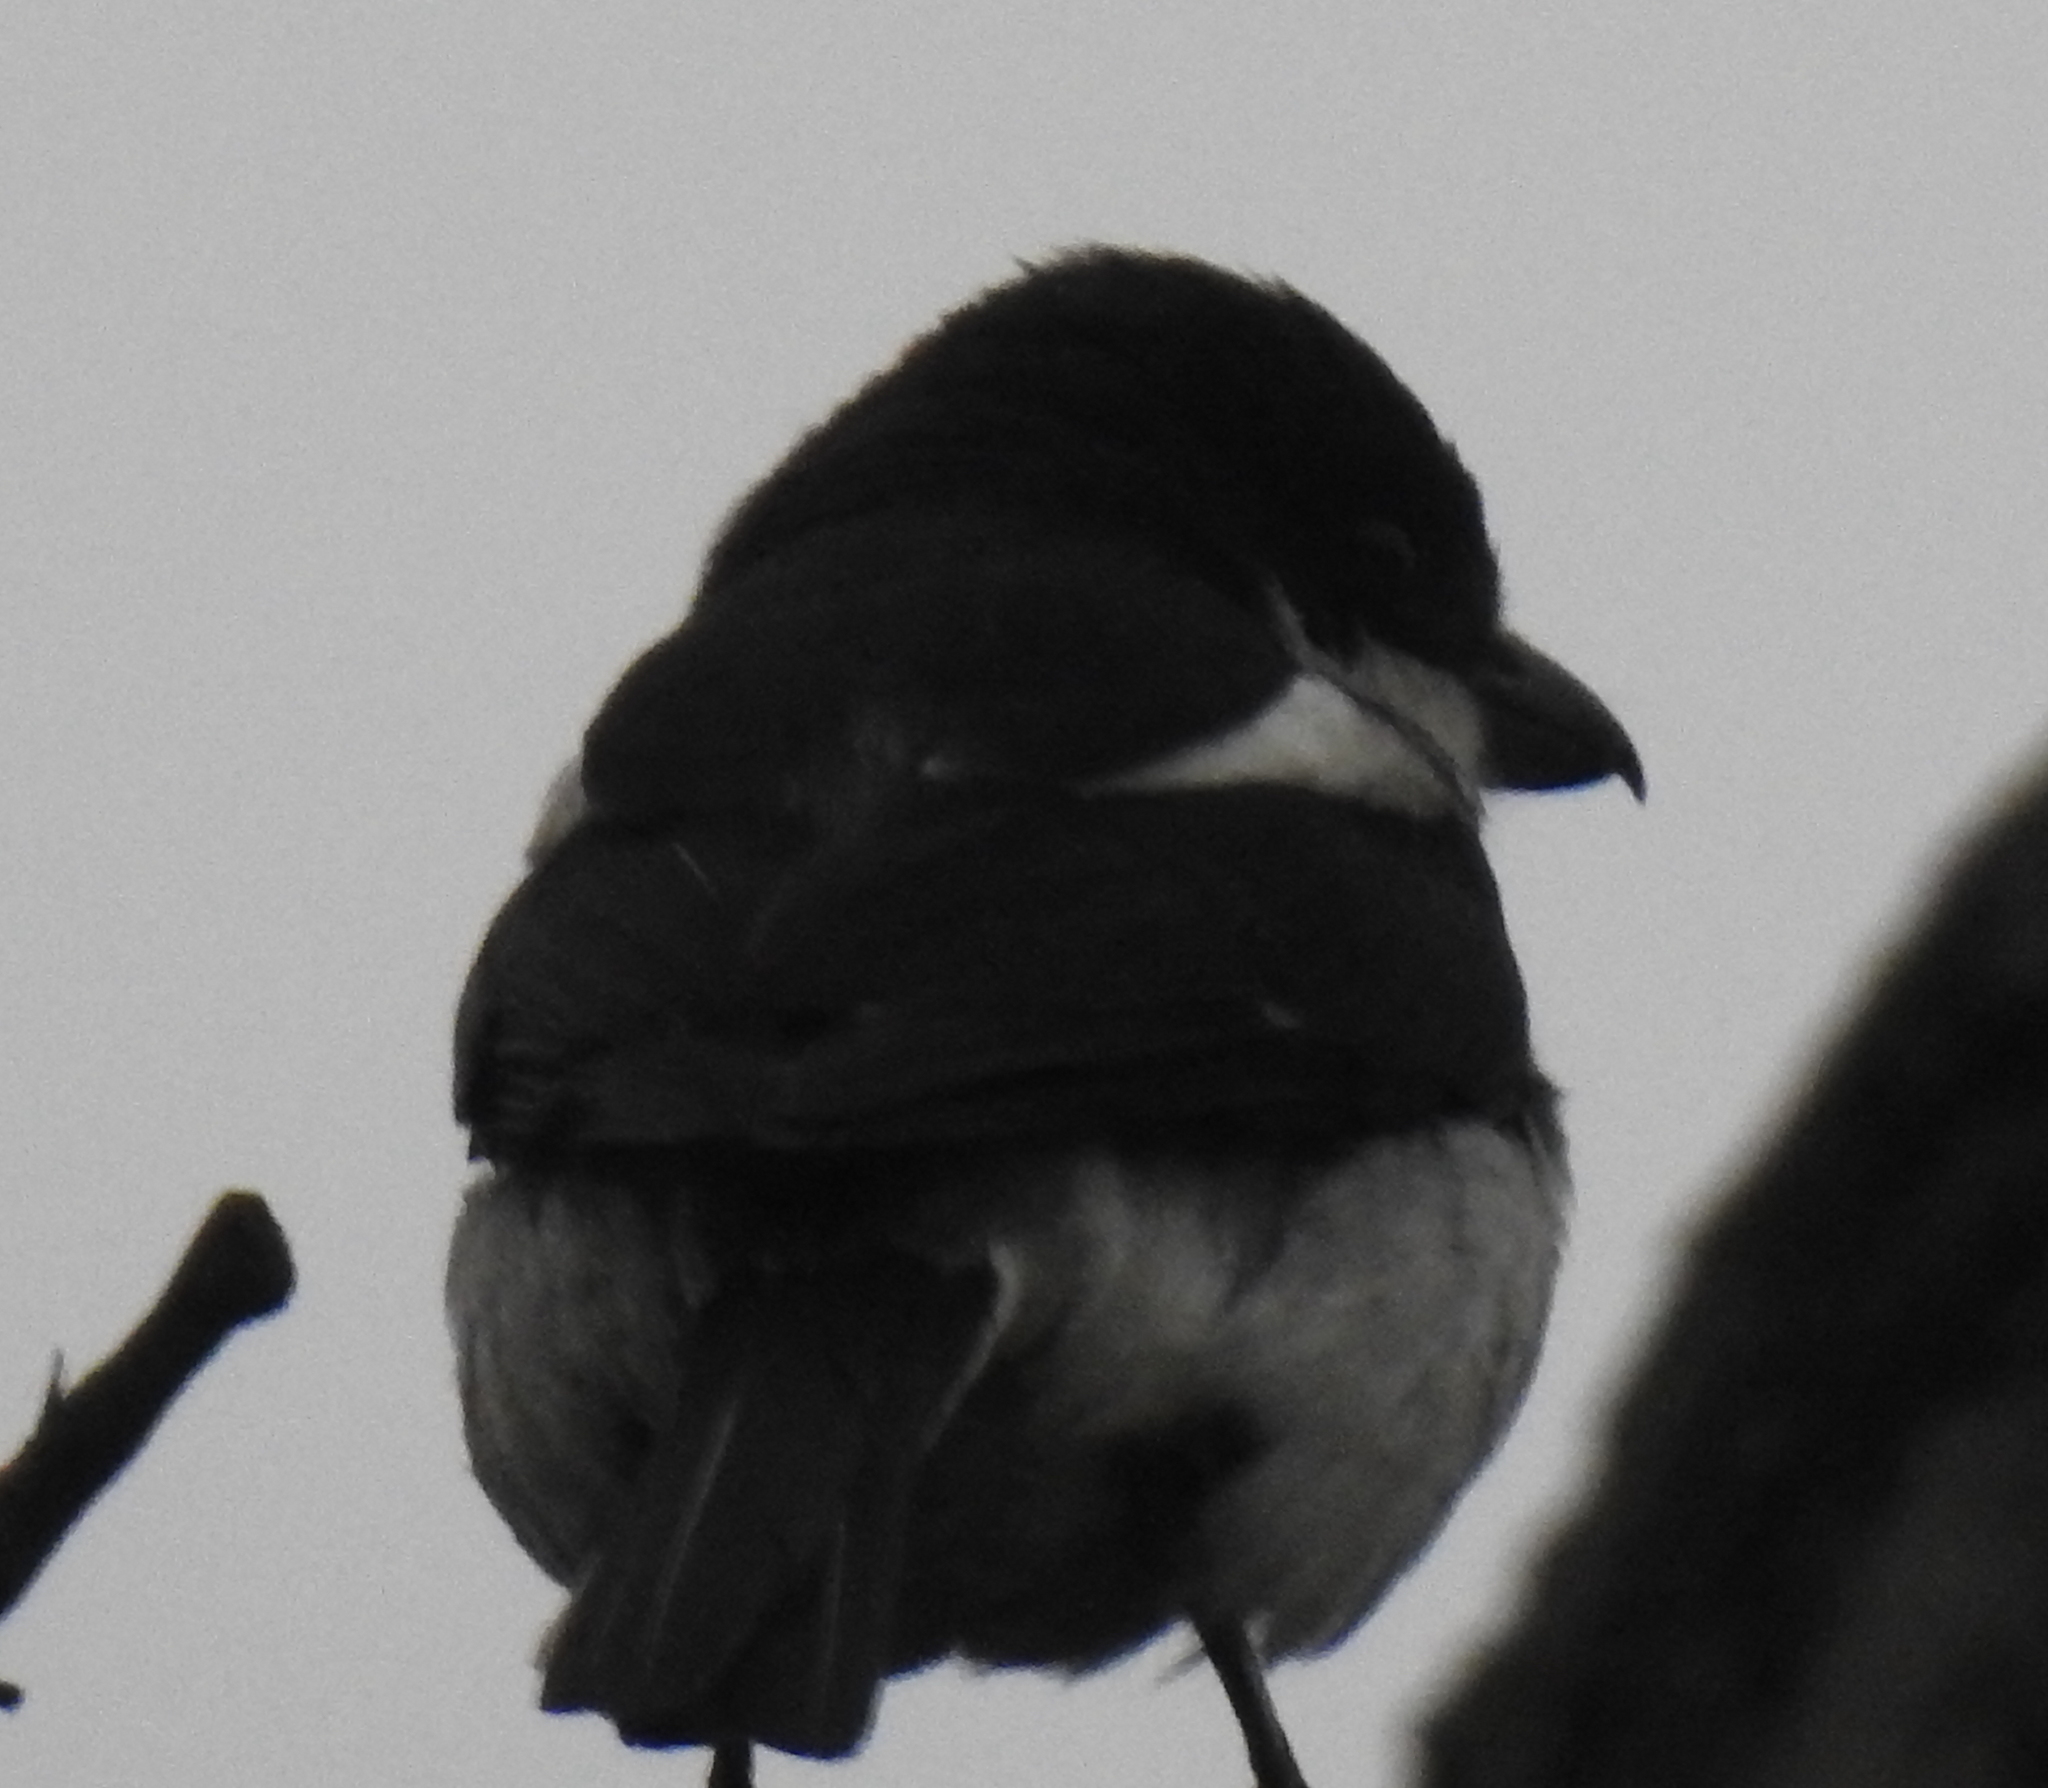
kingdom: Animalia
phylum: Chordata
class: Aves
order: Passeriformes
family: Laniidae
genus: Lanius
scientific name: Lanius collaris
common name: Southern fiscal
